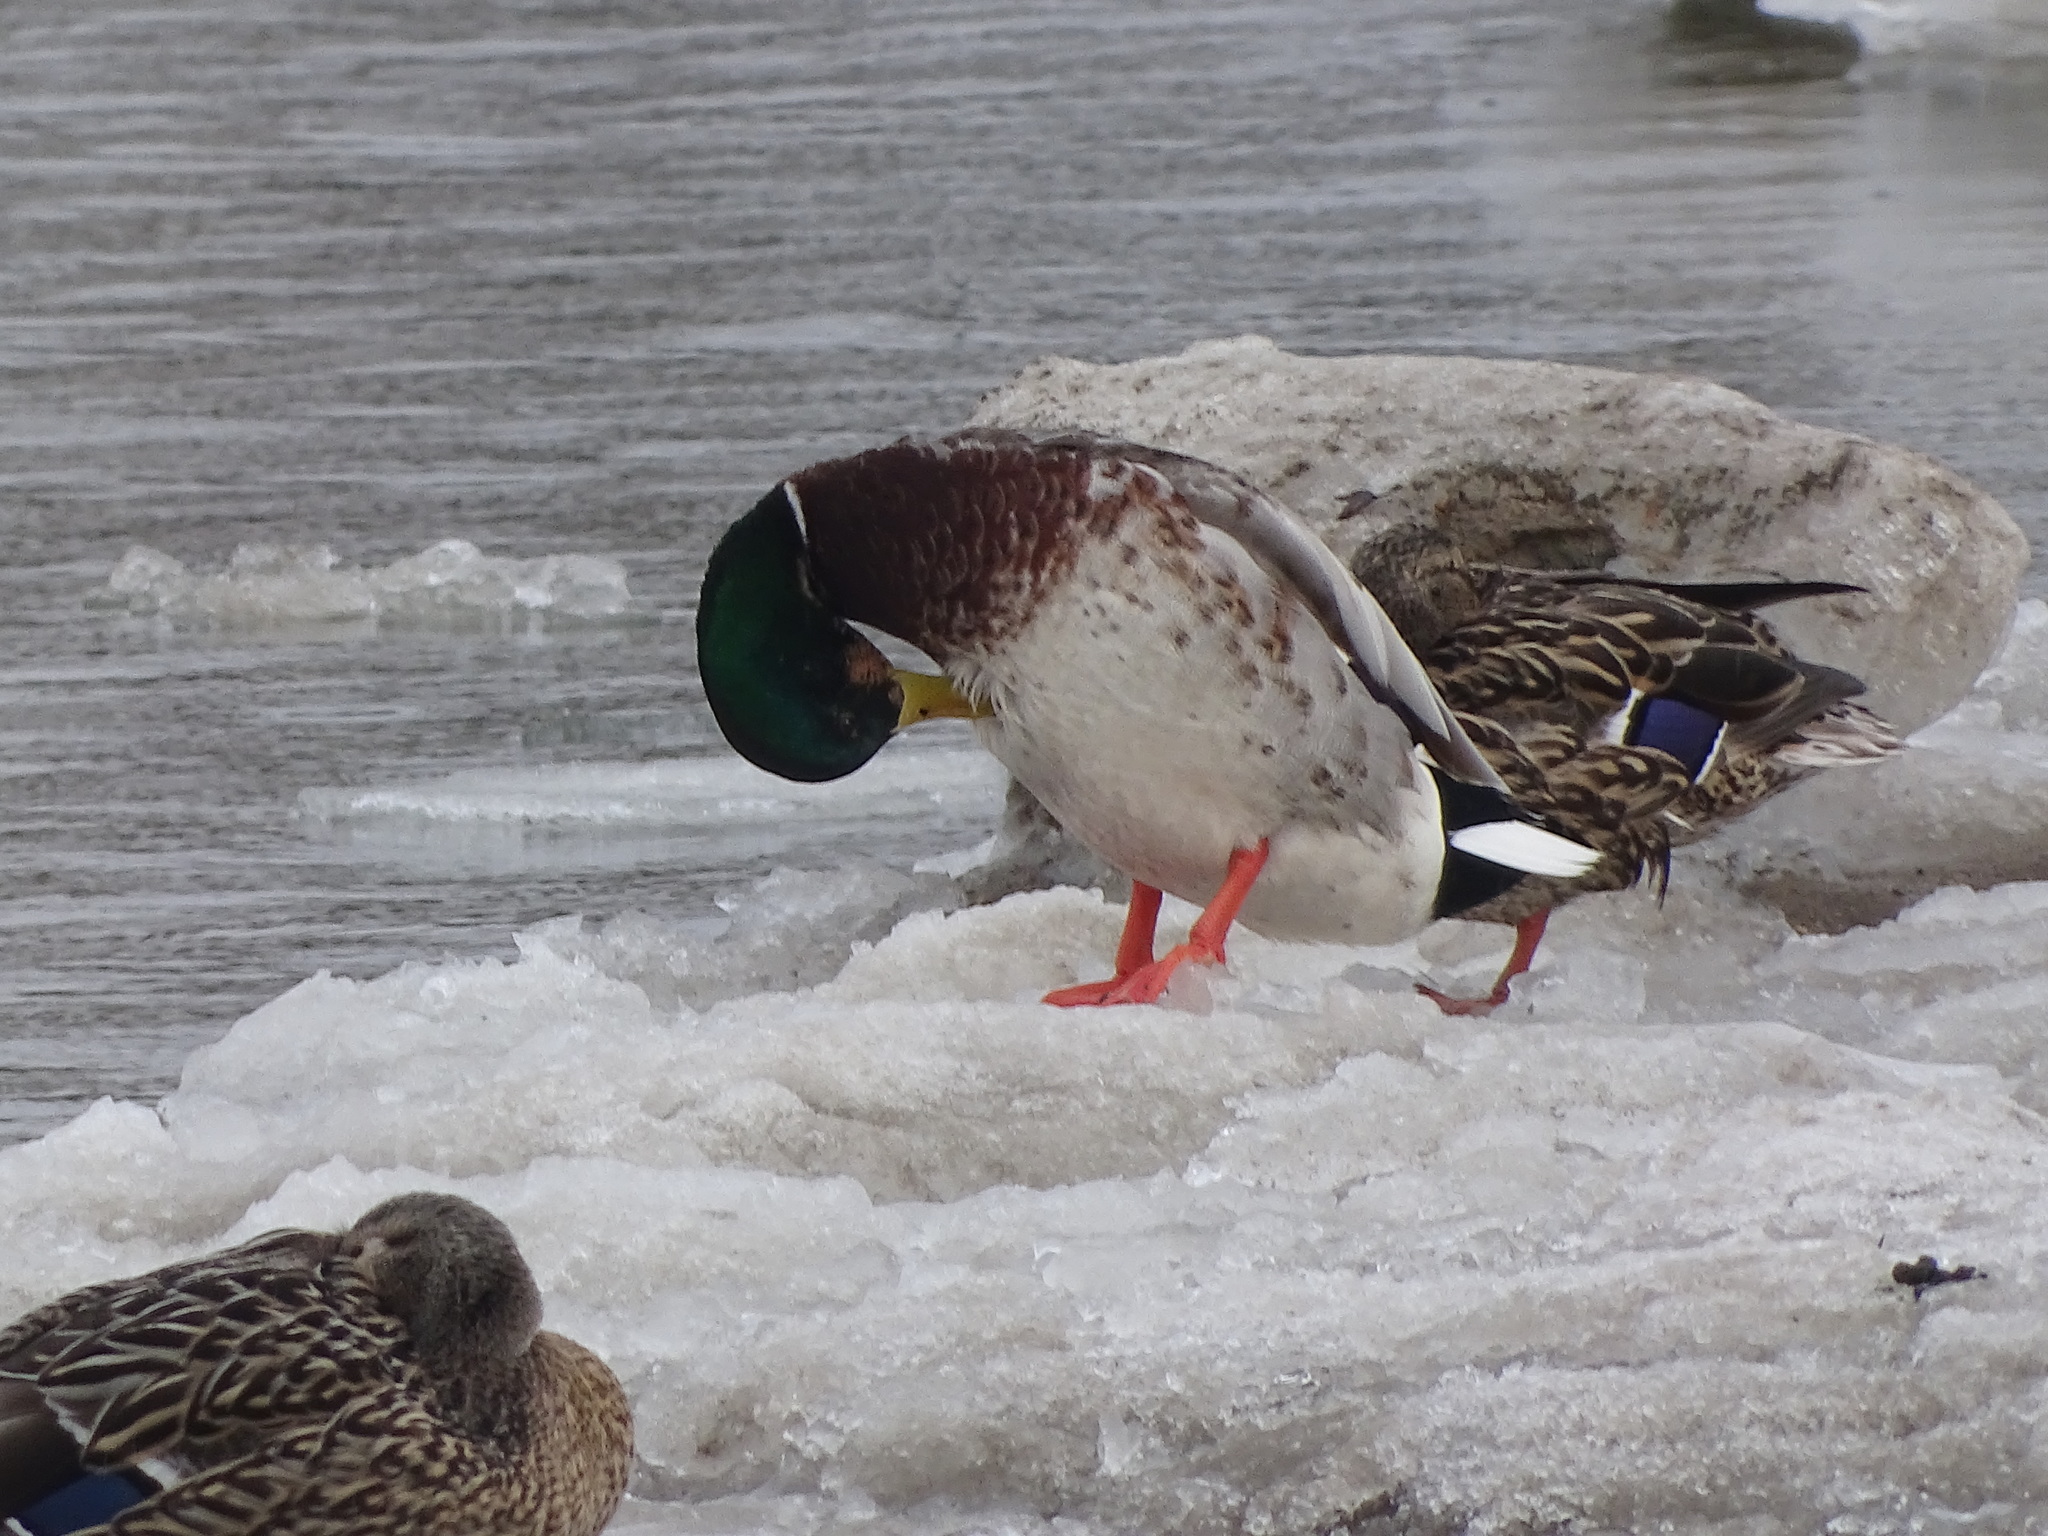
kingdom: Animalia
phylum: Chordata
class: Aves
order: Anseriformes
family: Anatidae
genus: Anas
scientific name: Anas platyrhynchos
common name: Mallard
